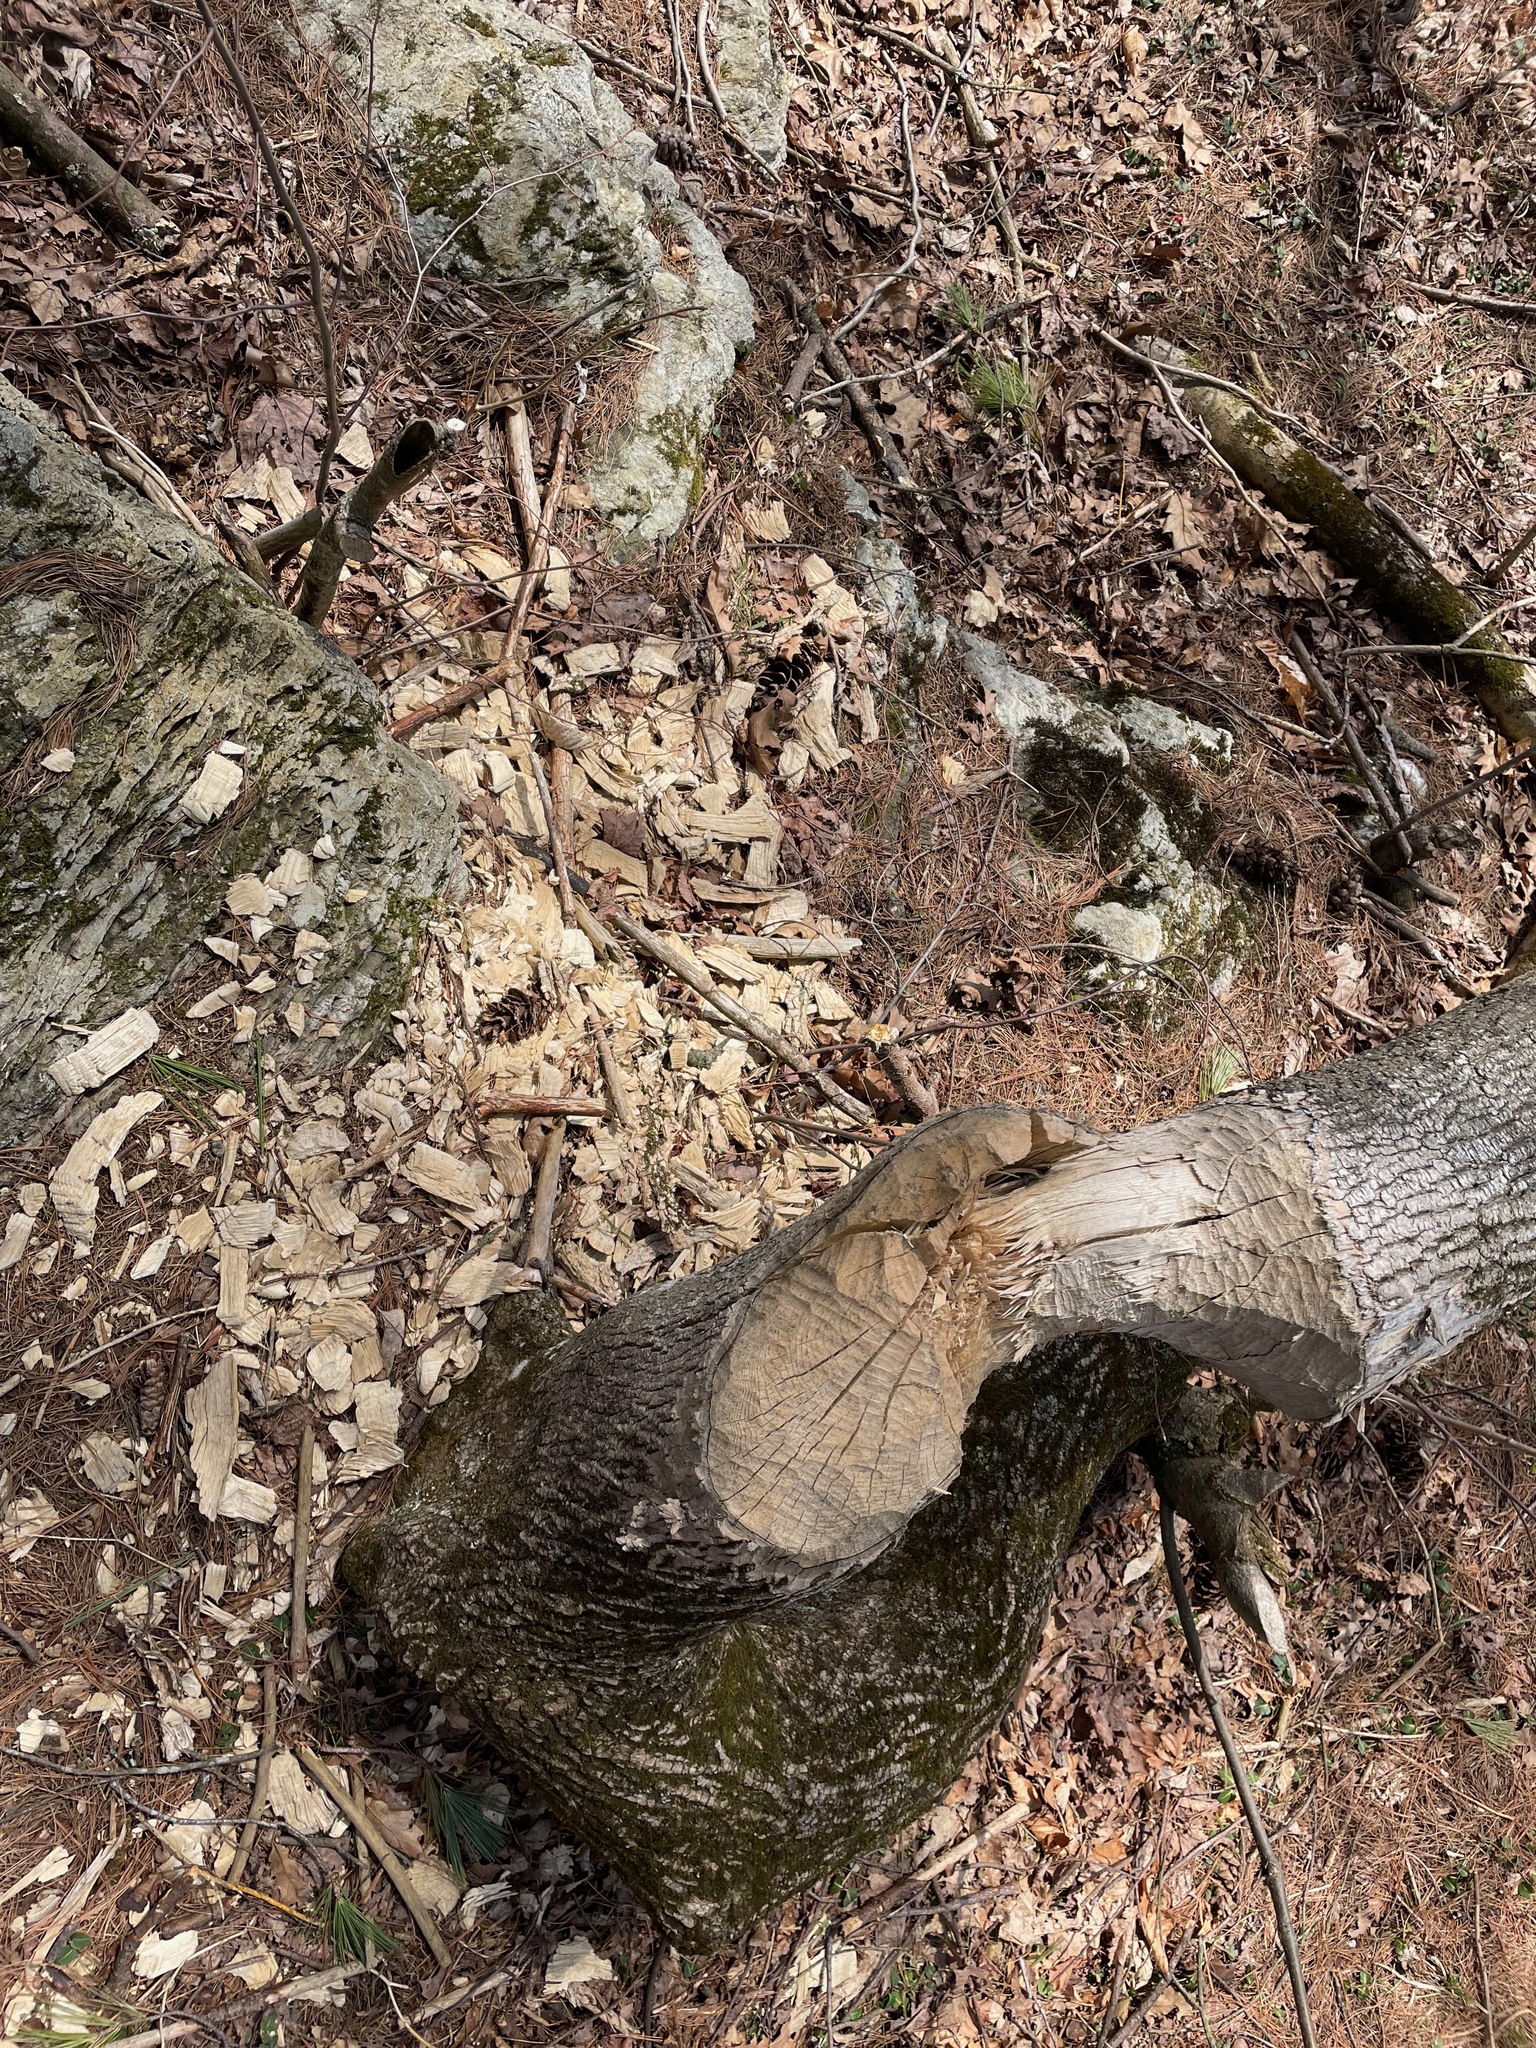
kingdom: Animalia
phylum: Chordata
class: Mammalia
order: Rodentia
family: Castoridae
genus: Castor
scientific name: Castor canadensis
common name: American beaver
